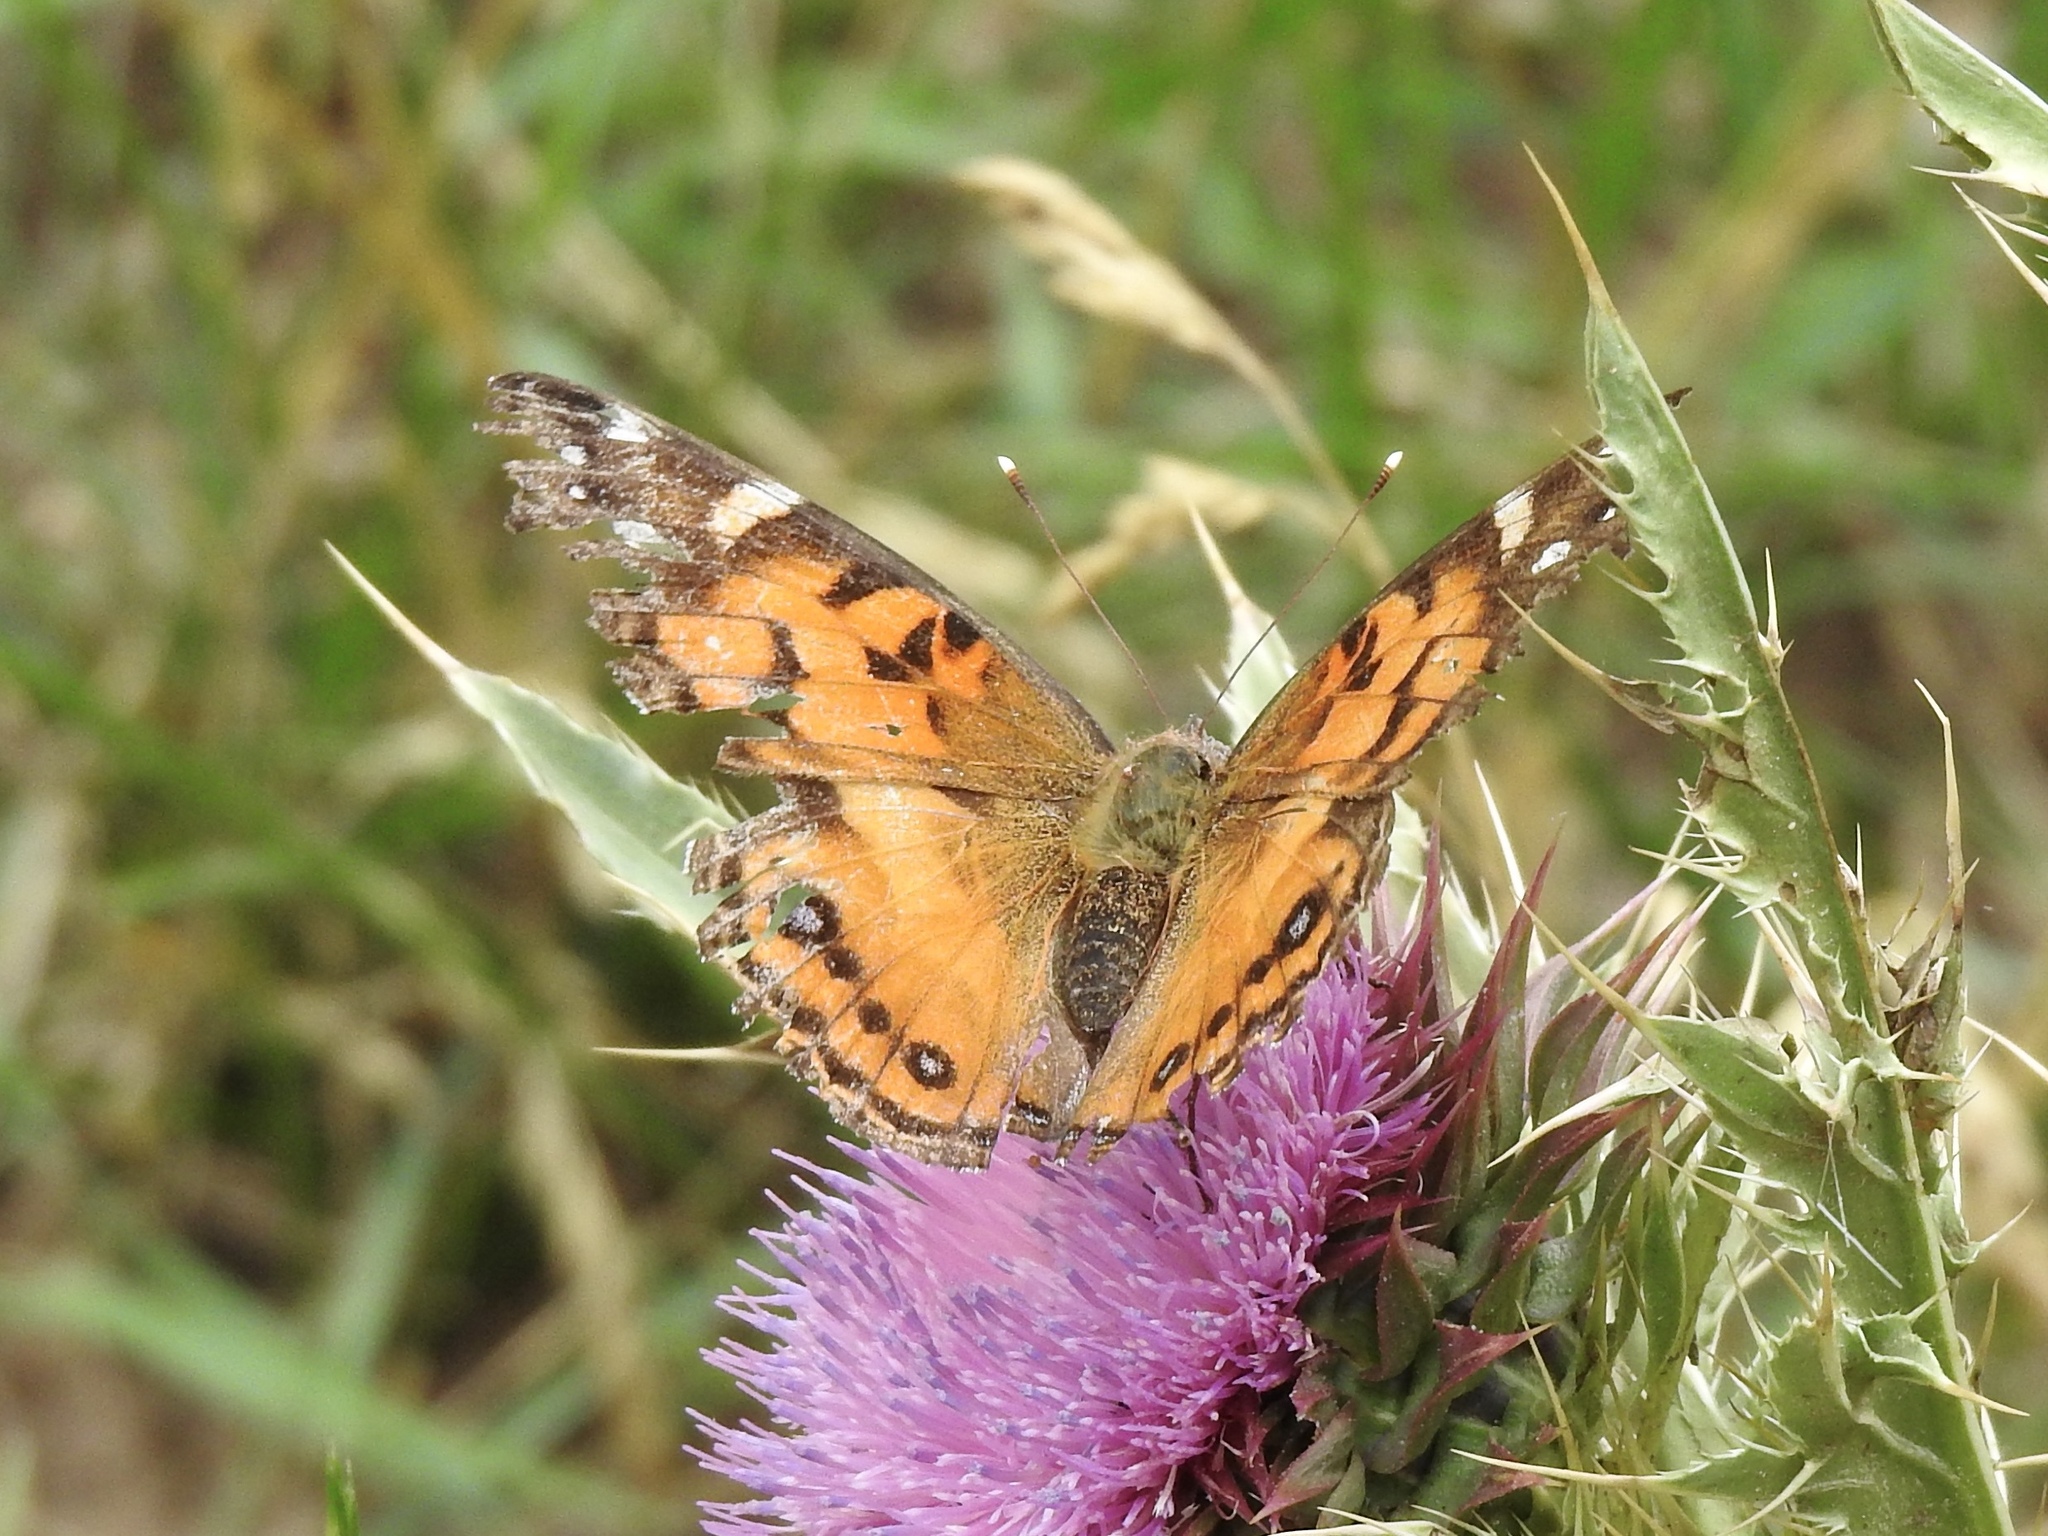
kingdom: Animalia
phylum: Arthropoda
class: Insecta
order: Lepidoptera
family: Nymphalidae
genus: Vanessa
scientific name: Vanessa virginiensis
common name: American lady
